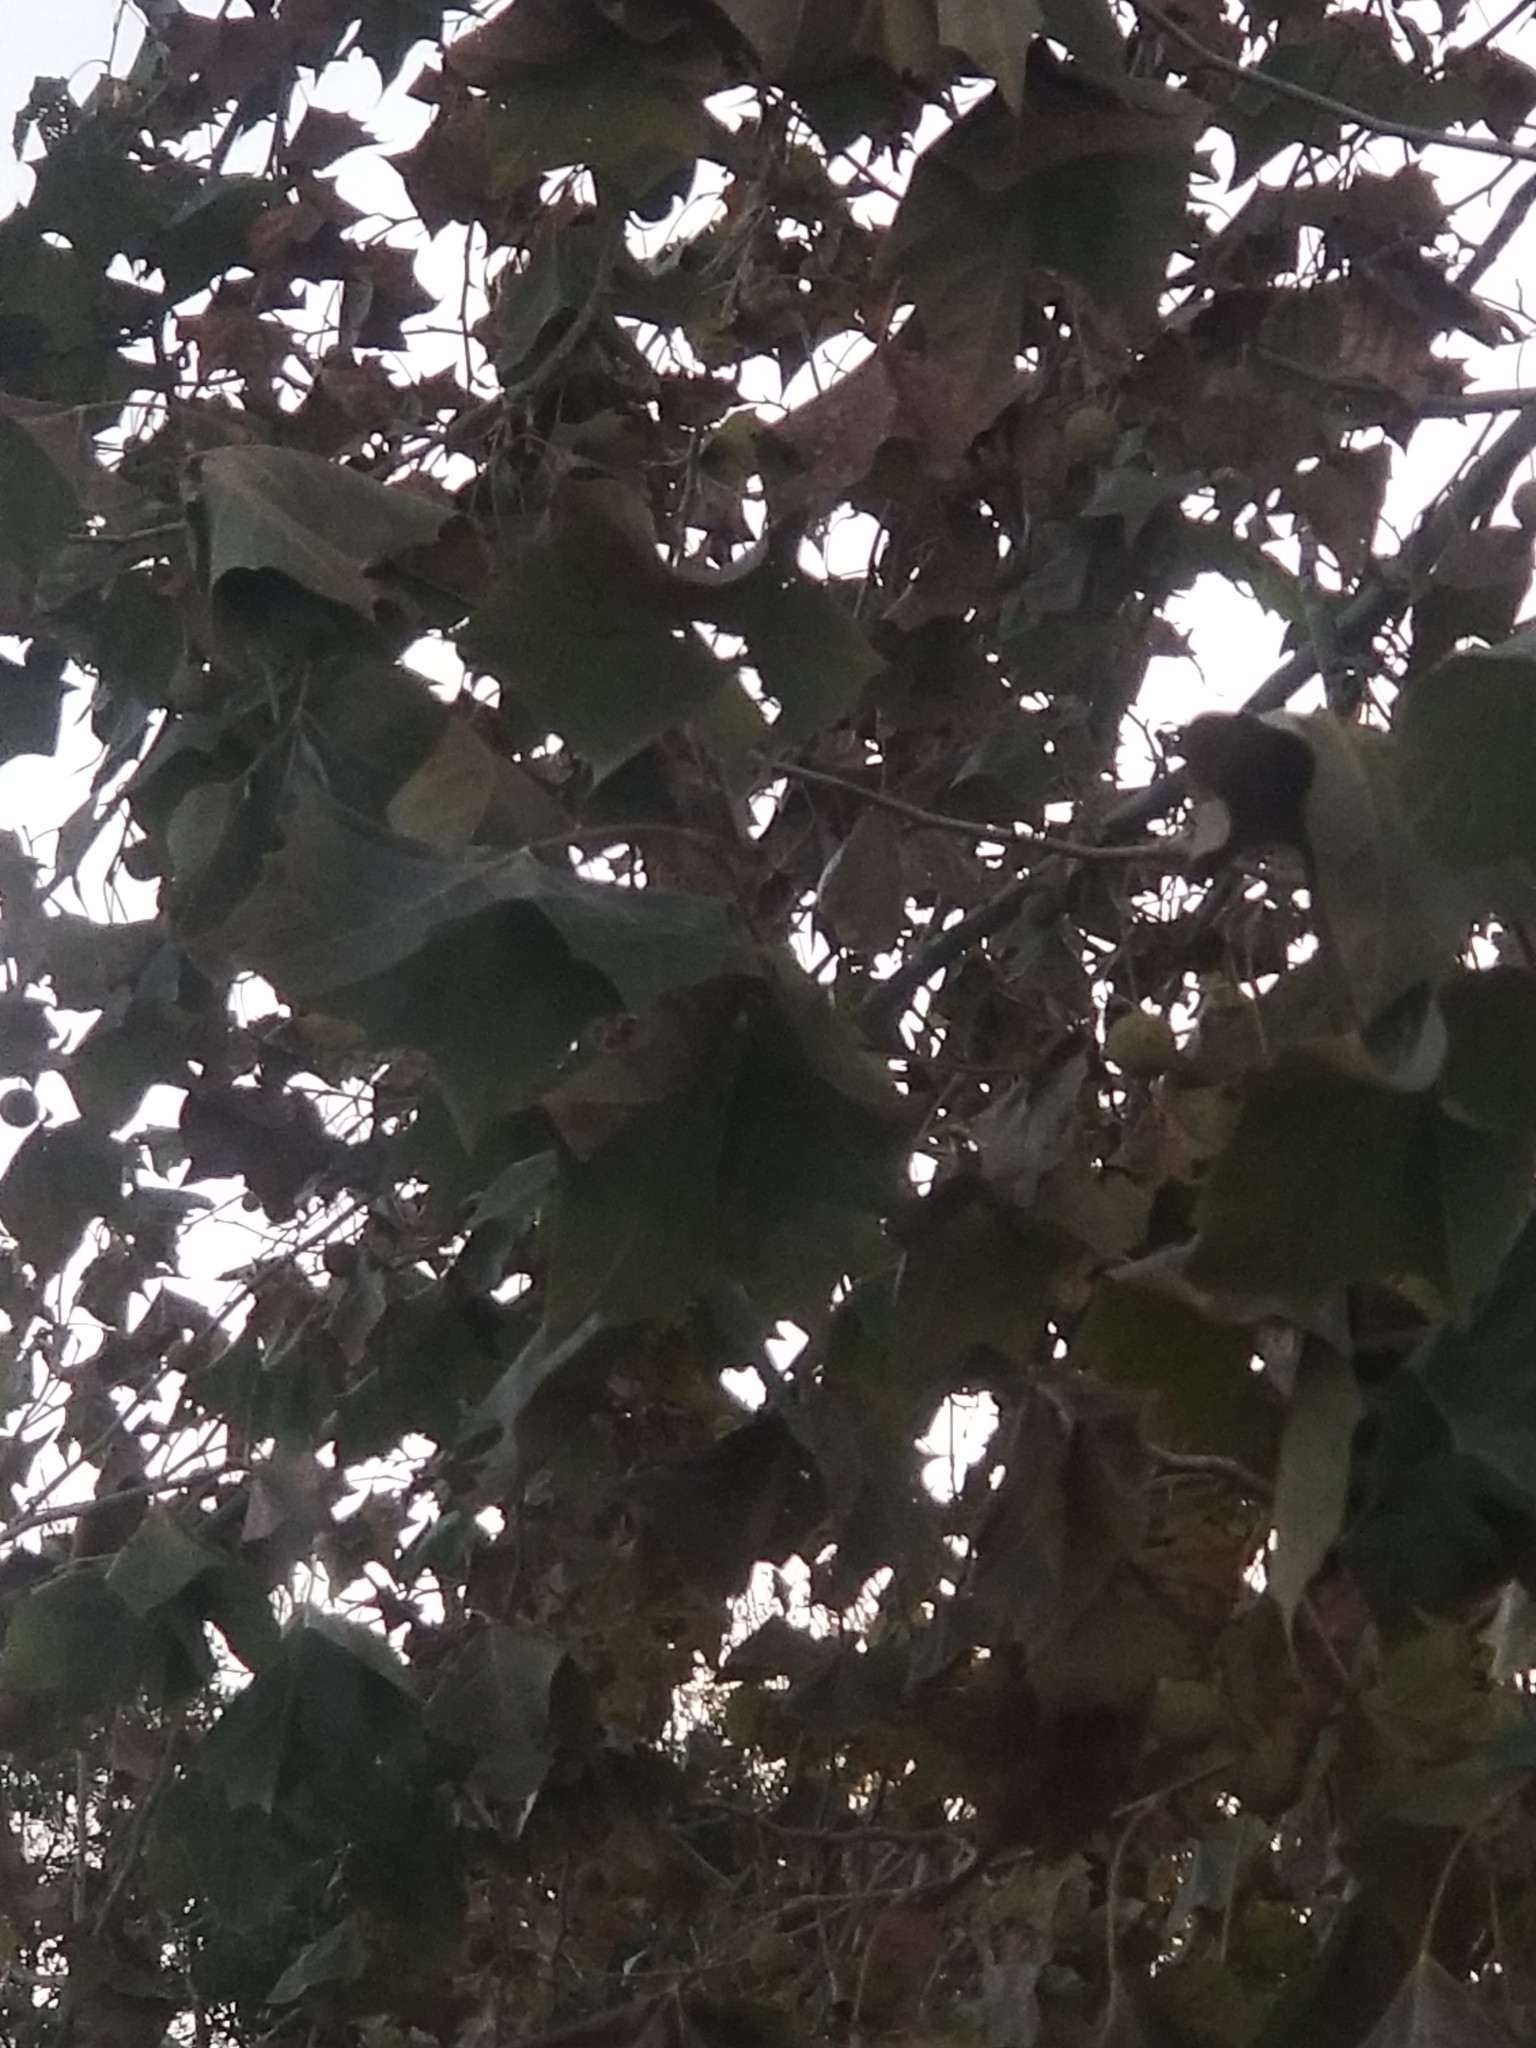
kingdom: Plantae
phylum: Tracheophyta
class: Magnoliopsida
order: Proteales
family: Platanaceae
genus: Platanus
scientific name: Platanus occidentalis
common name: American sycamore
